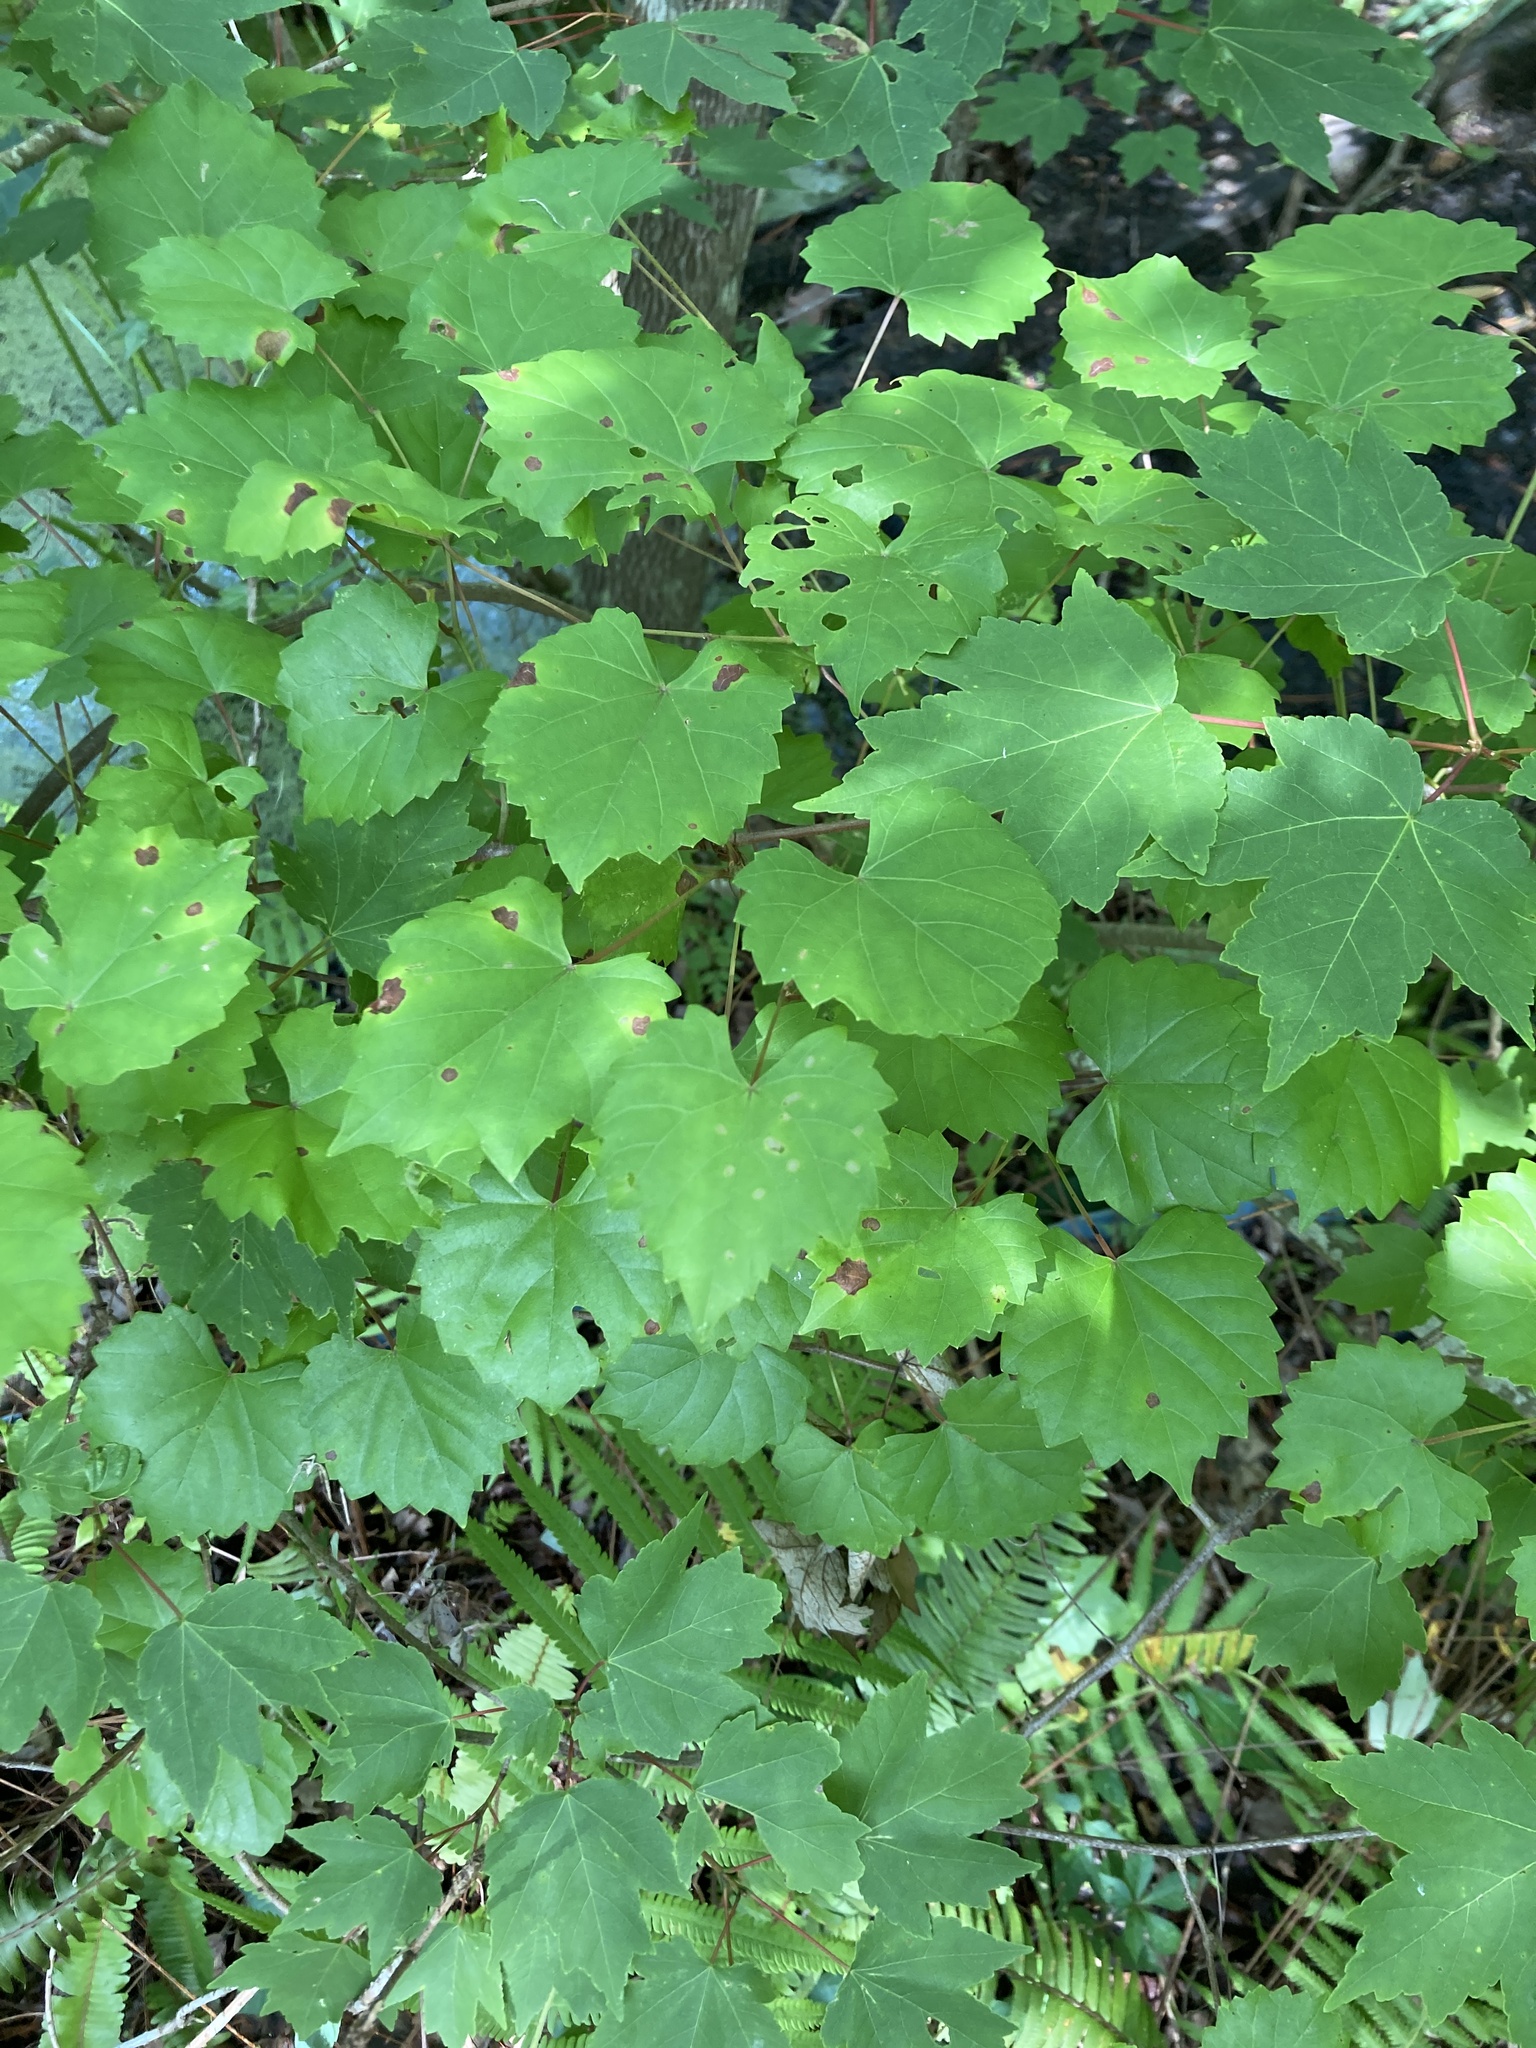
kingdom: Plantae
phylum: Tracheophyta
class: Magnoliopsida
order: Vitales
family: Vitaceae
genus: Vitis
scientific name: Vitis rotundifolia
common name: Muscadine grape
